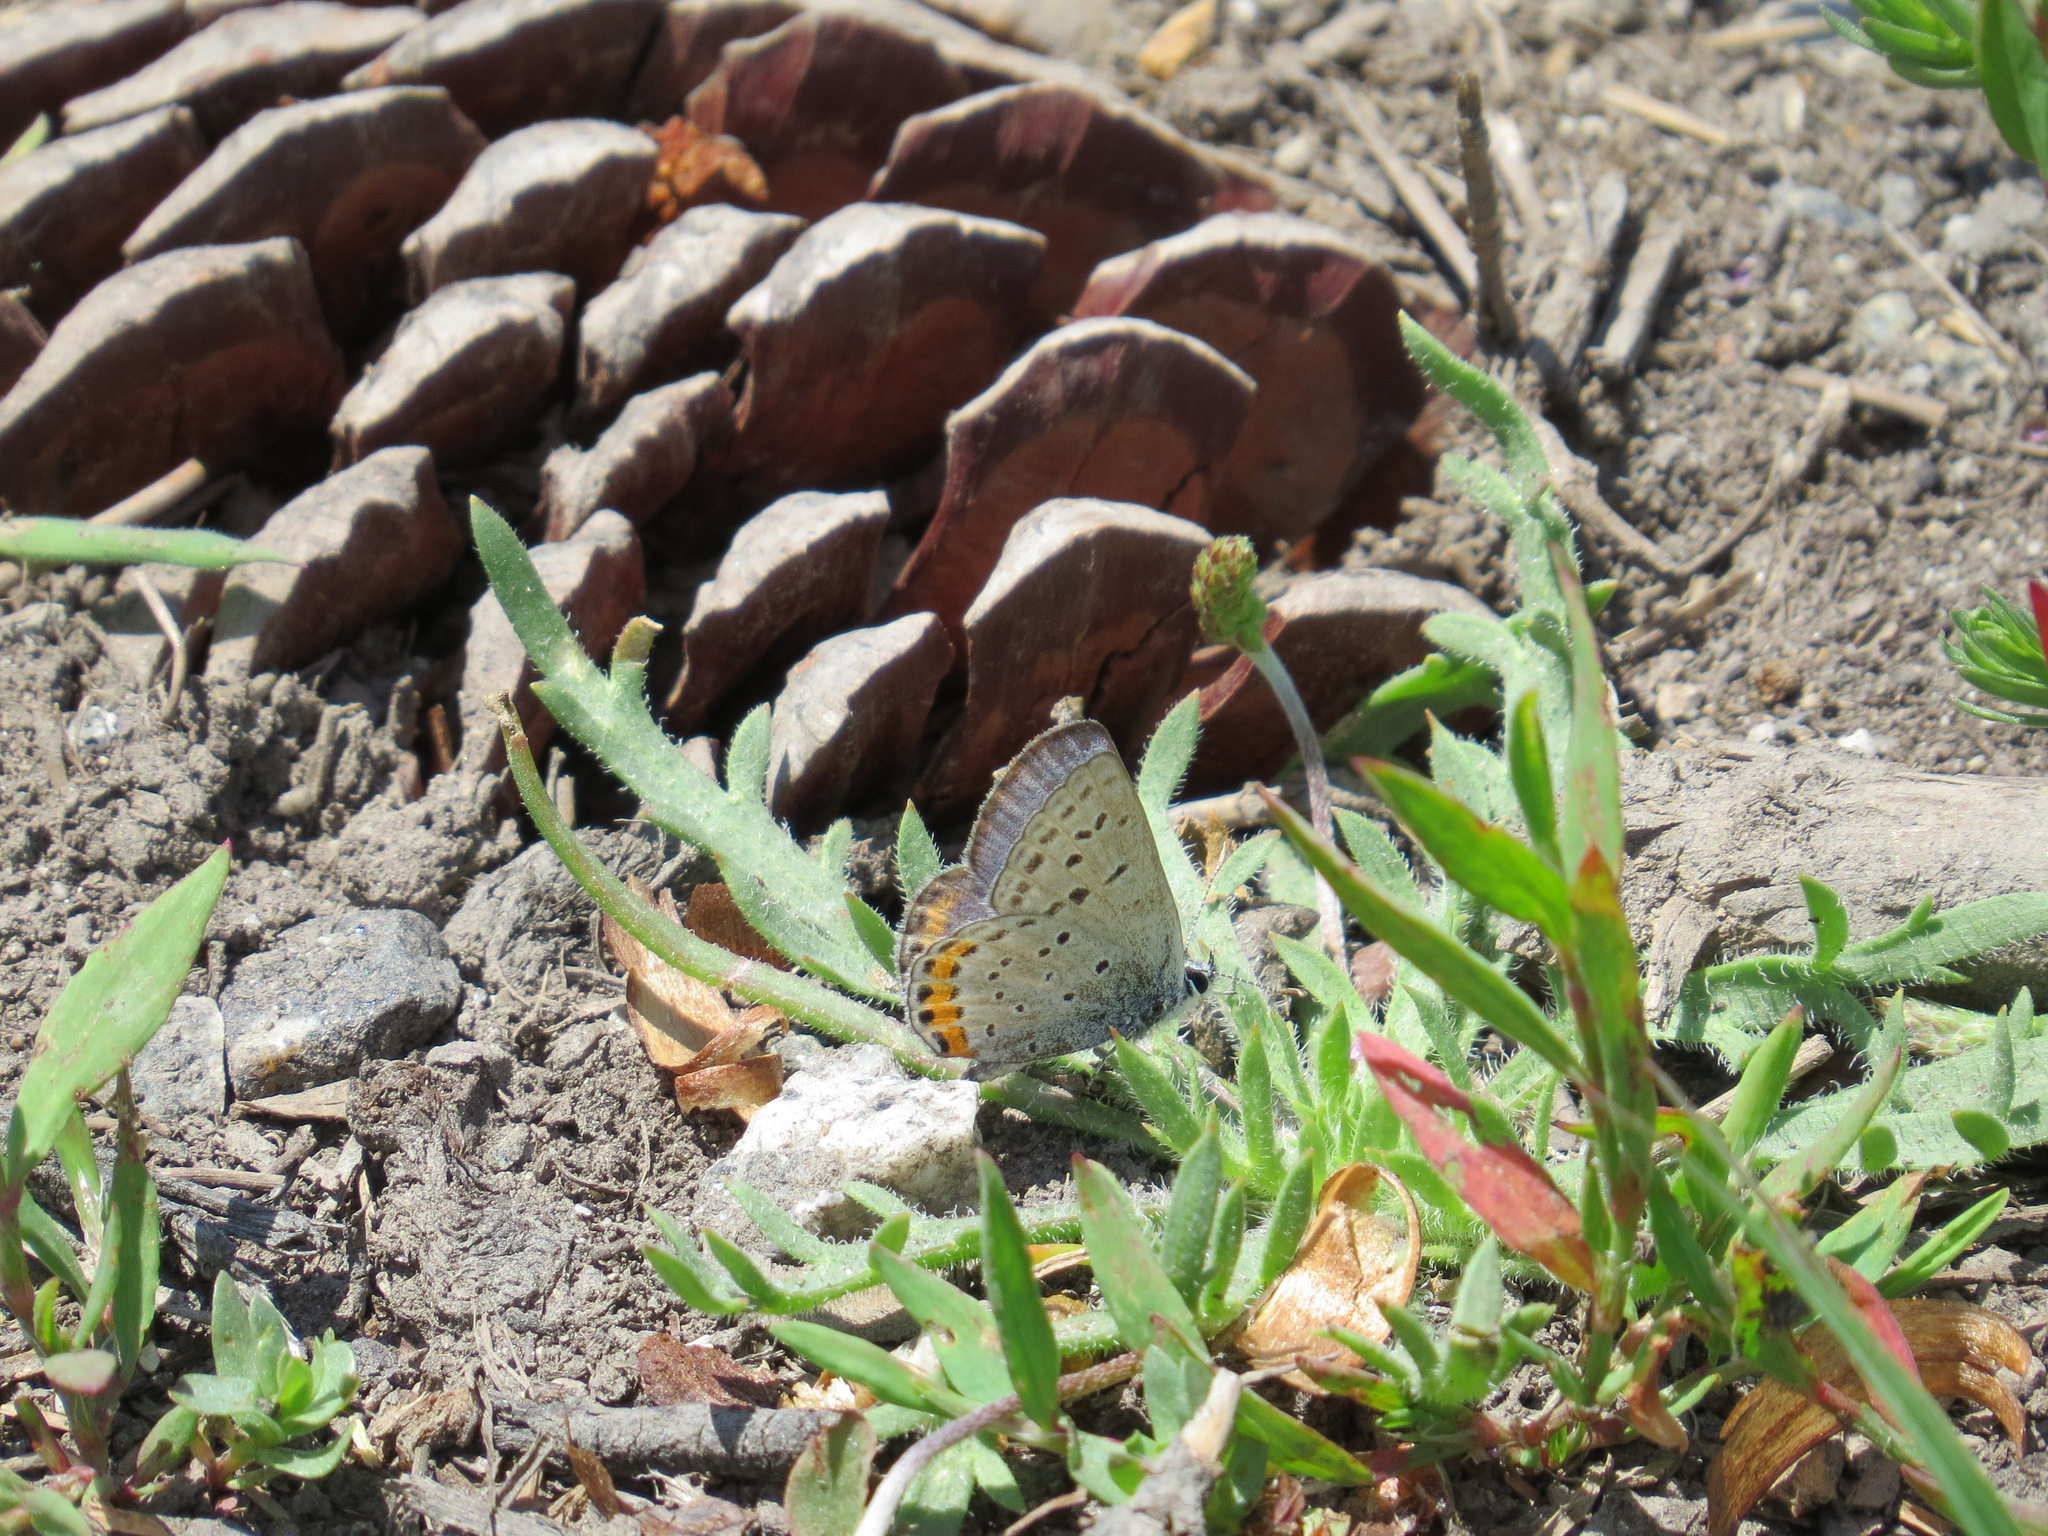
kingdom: Animalia
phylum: Arthropoda
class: Insecta
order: Lepidoptera
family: Lycaenidae
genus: Icaricia
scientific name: Icaricia acmon
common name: Acmon blue
